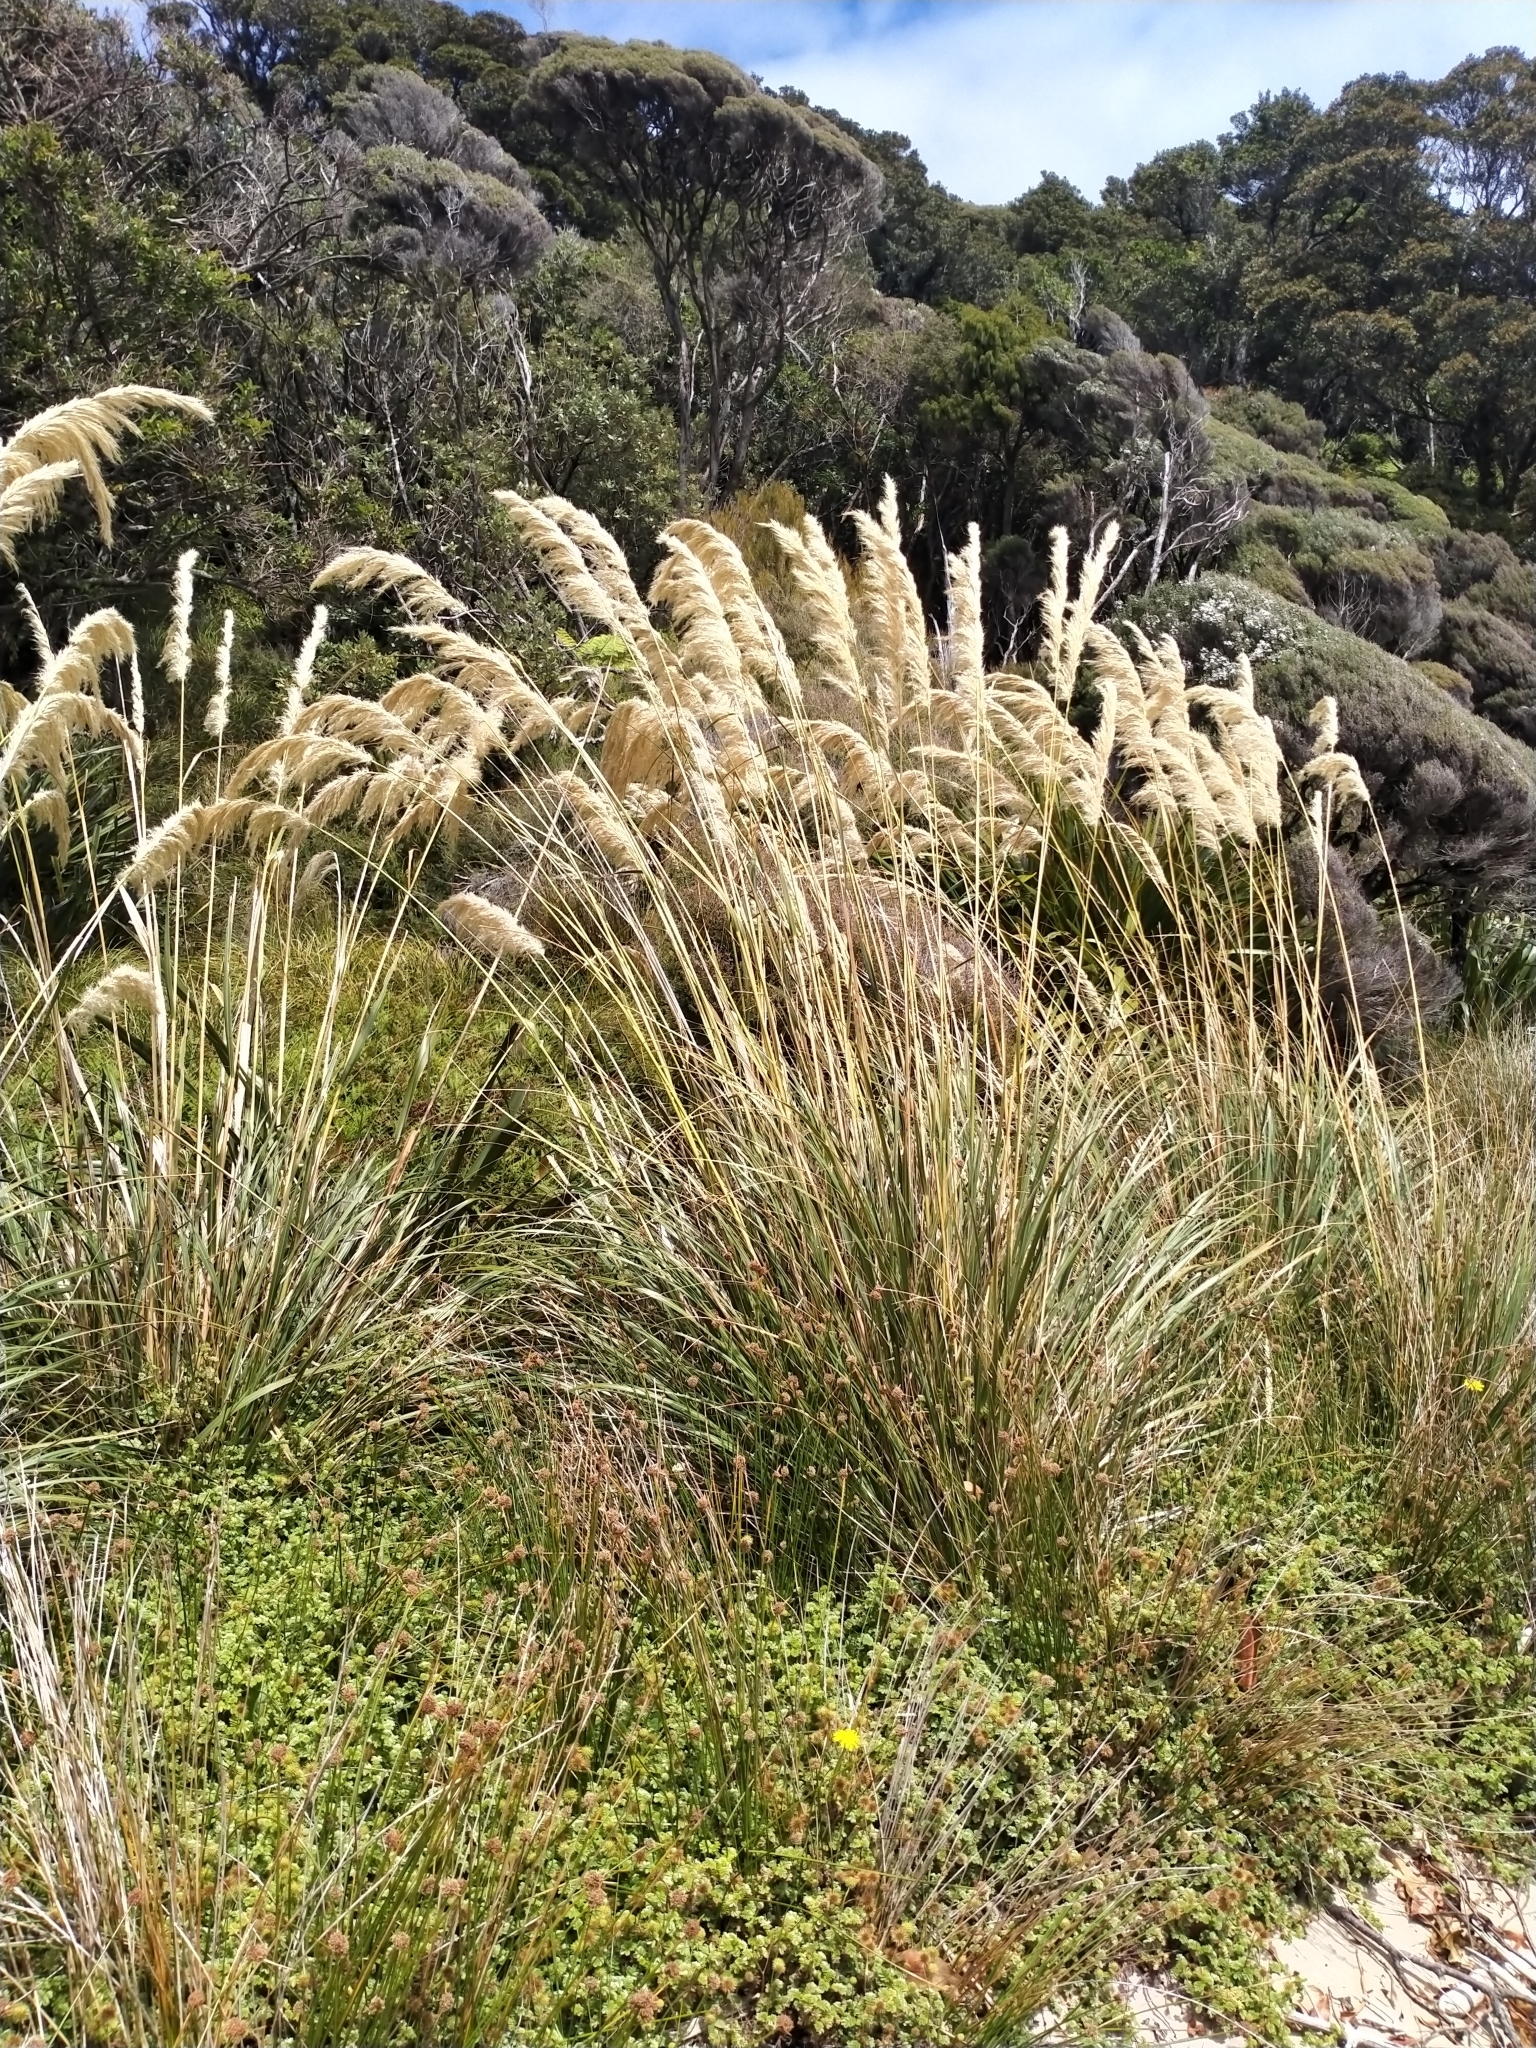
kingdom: Plantae
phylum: Tracheophyta
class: Liliopsida
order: Poales
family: Poaceae
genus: Austroderia
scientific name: Austroderia richardii
